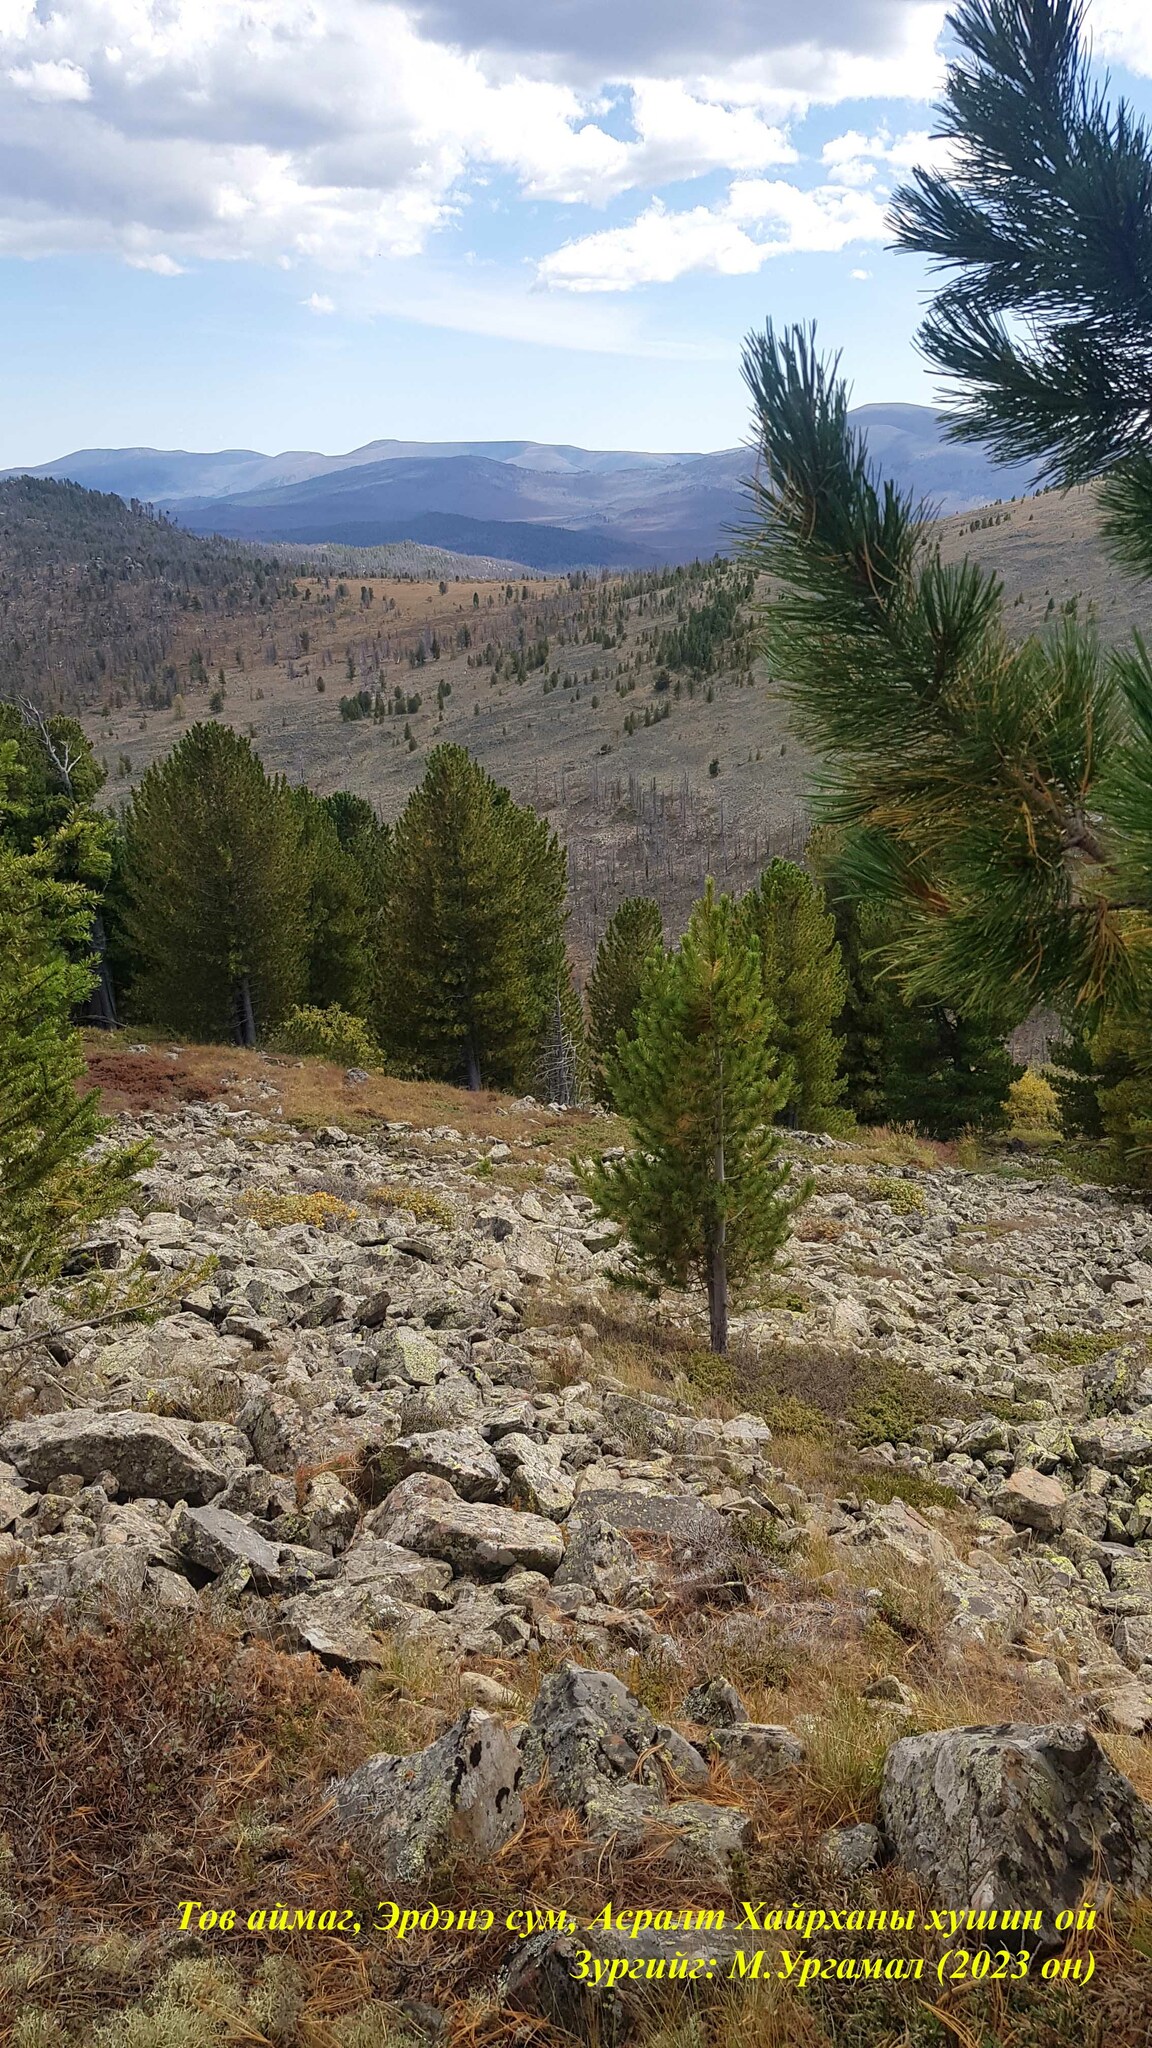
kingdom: Plantae
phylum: Tracheophyta
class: Pinopsida
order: Pinales
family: Pinaceae
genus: Pinus
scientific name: Pinus sibirica
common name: Siberian pine
